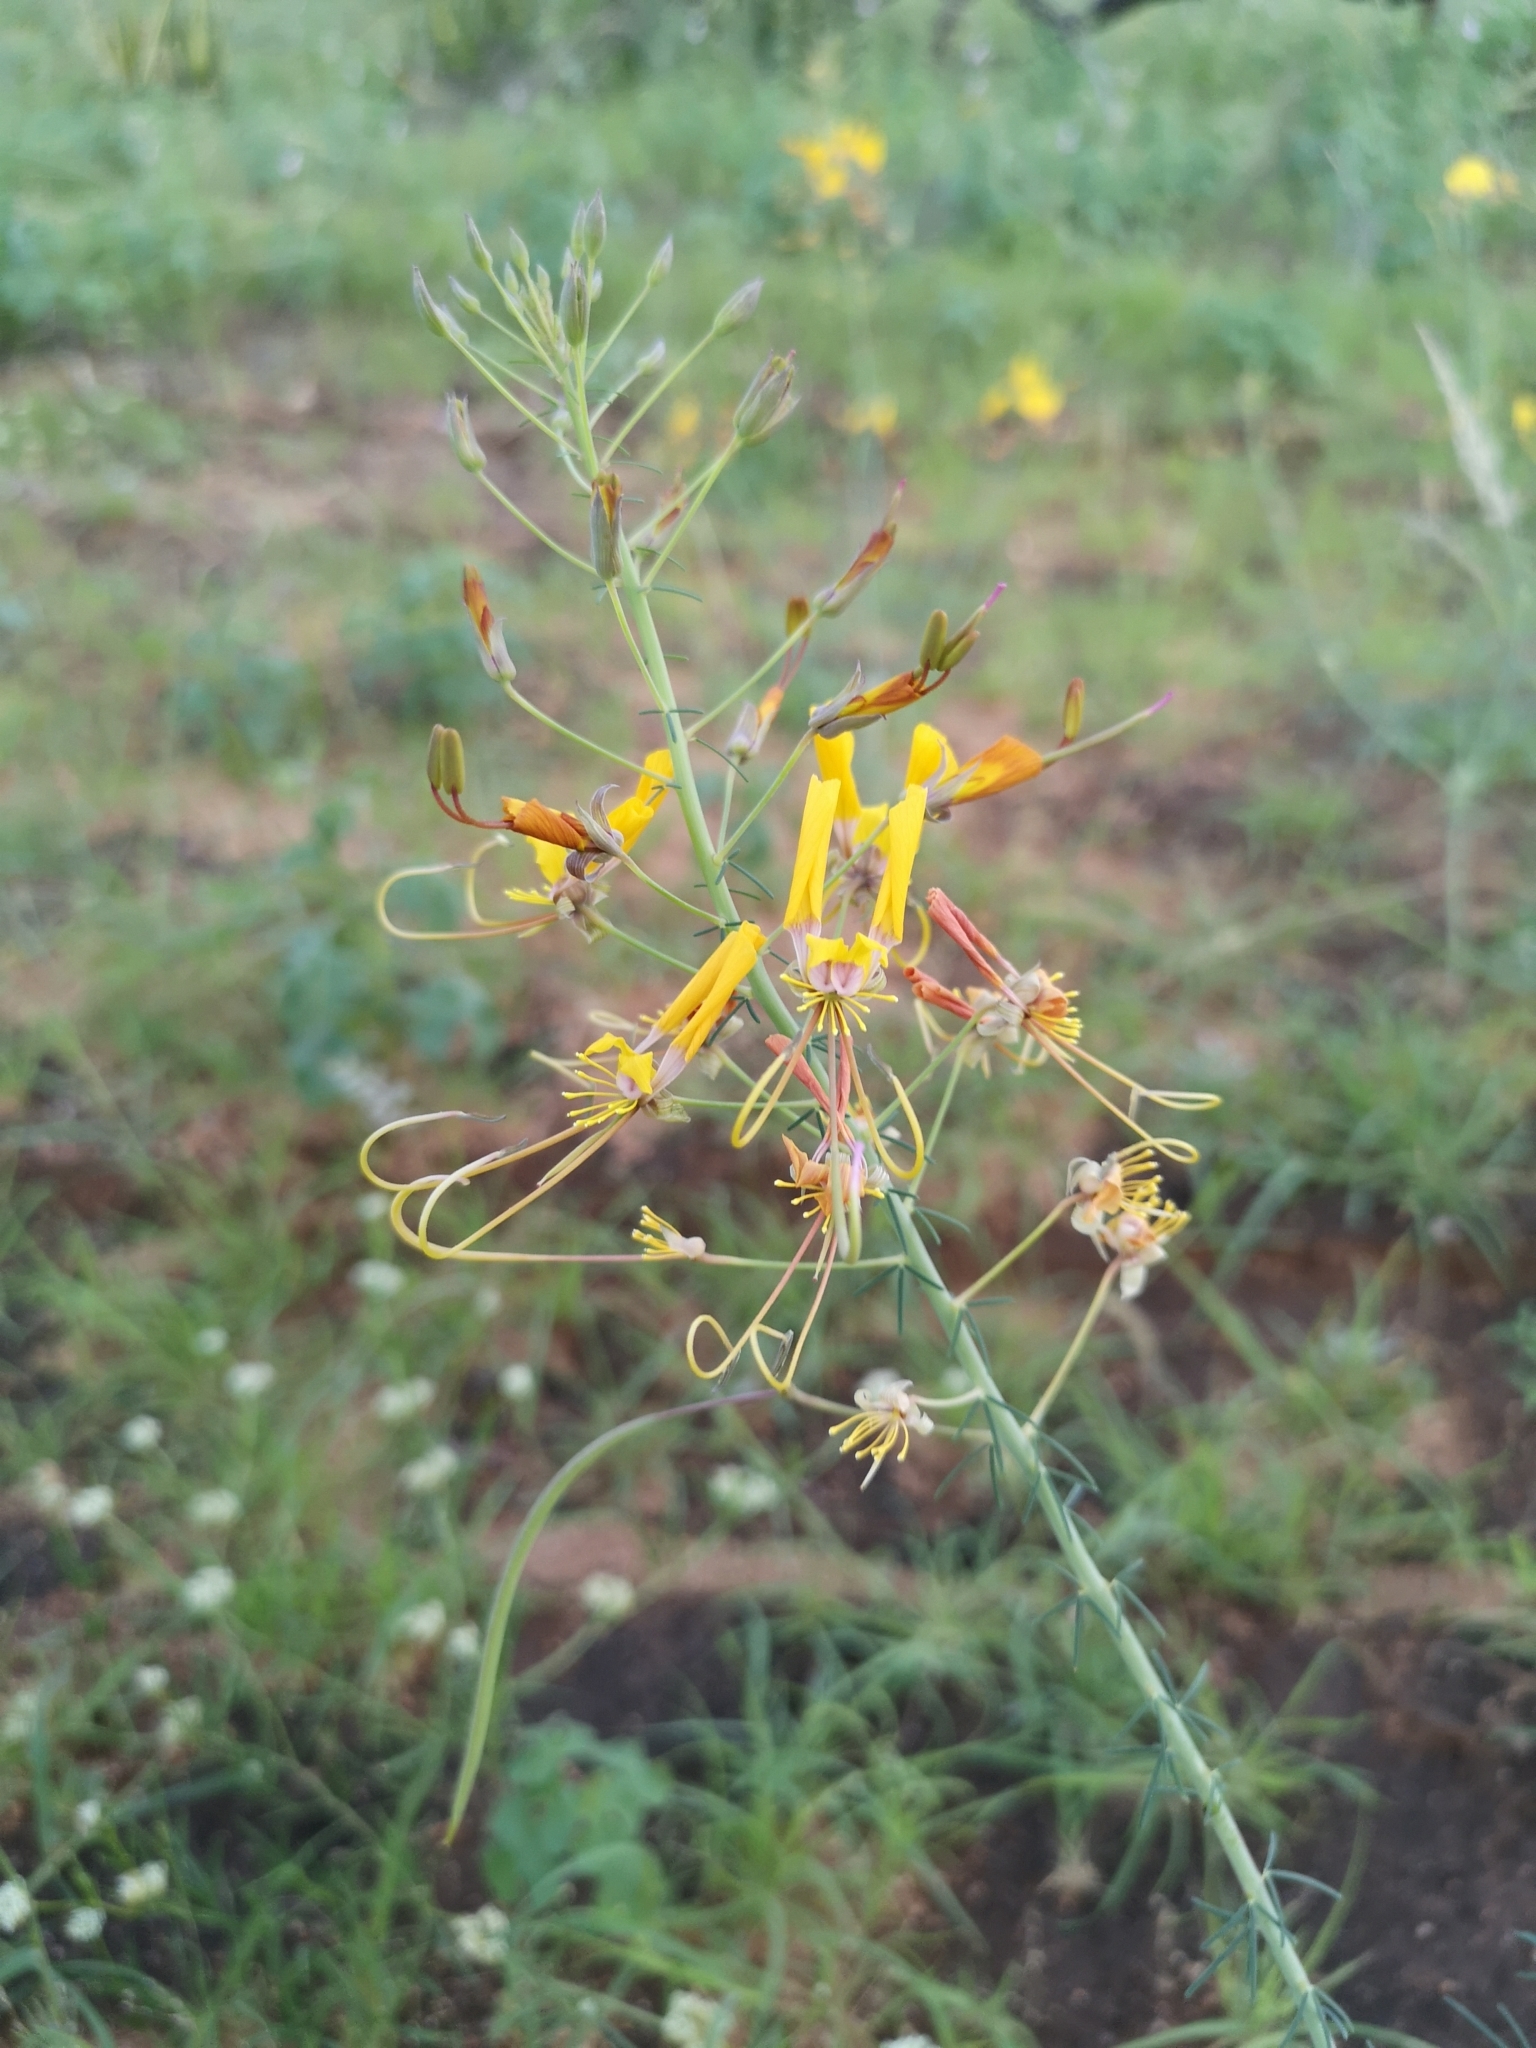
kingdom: Plantae
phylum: Tracheophyta
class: Magnoliopsida
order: Brassicales
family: Cleomaceae
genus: Coalisina
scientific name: Coalisina
